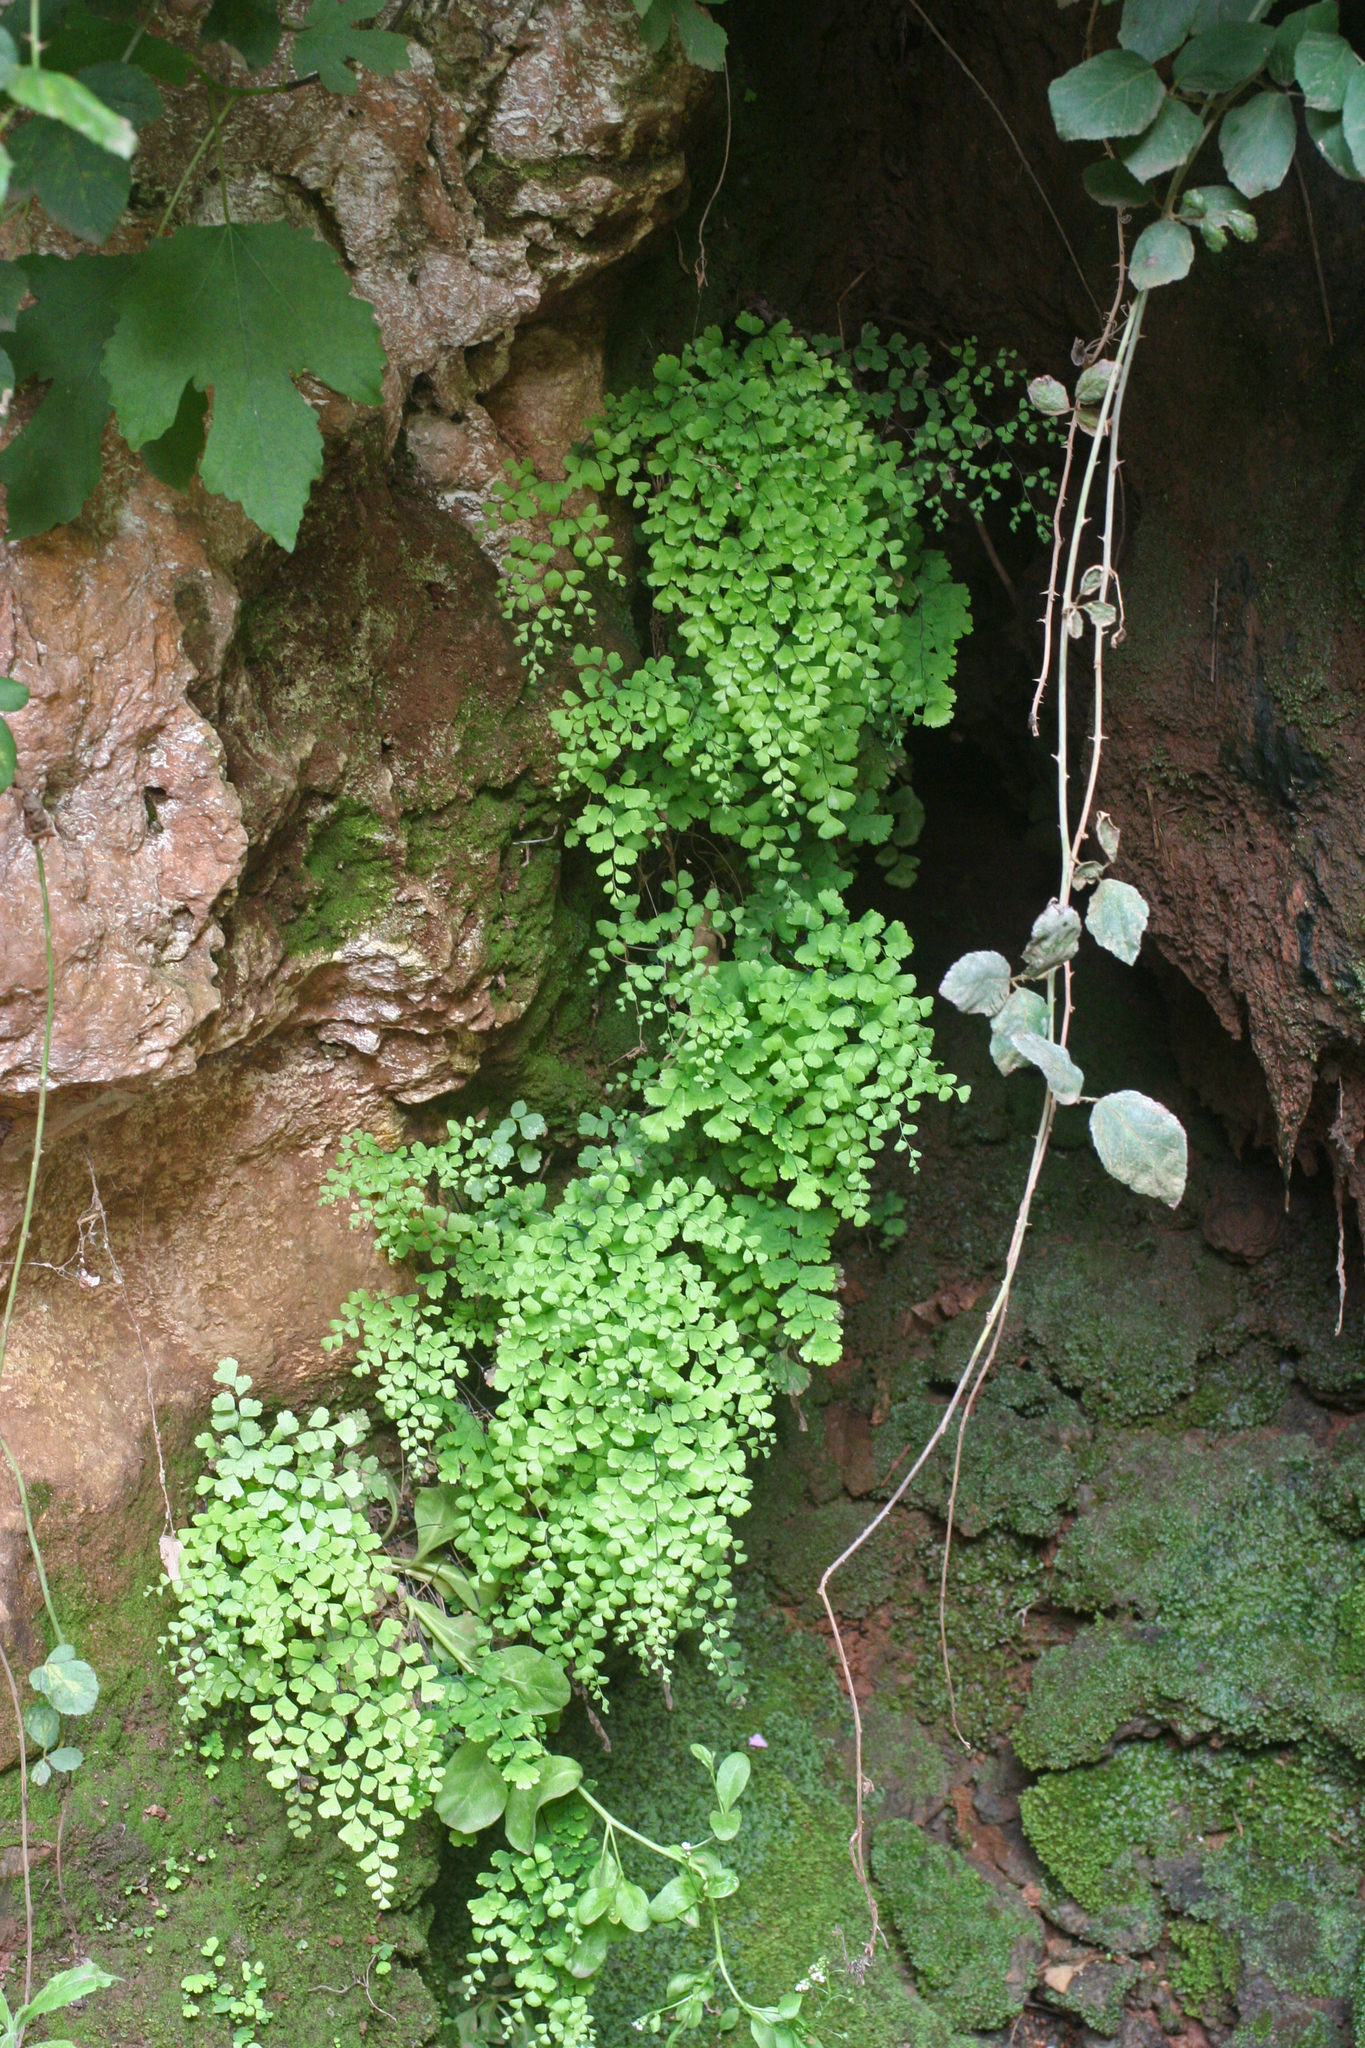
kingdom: Plantae
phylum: Tracheophyta
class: Polypodiopsida
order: Polypodiales
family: Pteridaceae
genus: Adiantum
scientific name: Adiantum capillus-veneris
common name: Maidenhair fern
